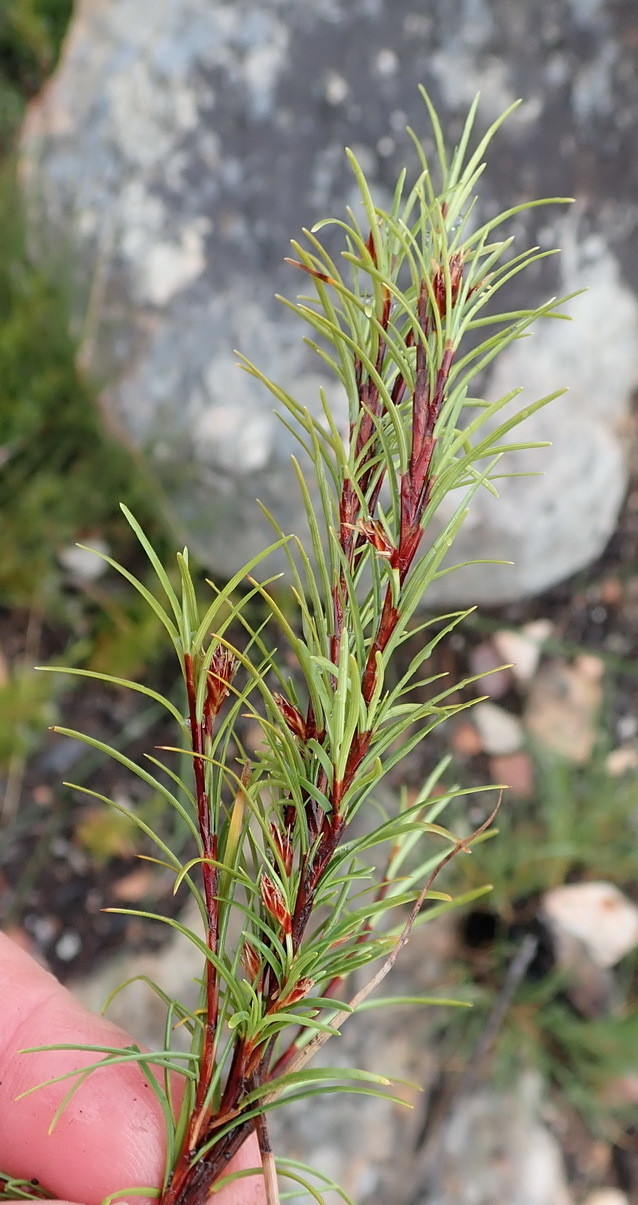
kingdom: Plantae
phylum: Tracheophyta
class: Liliopsida
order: Poales
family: Cyperaceae
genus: Ficinia
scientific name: Ficinia ramosissima
